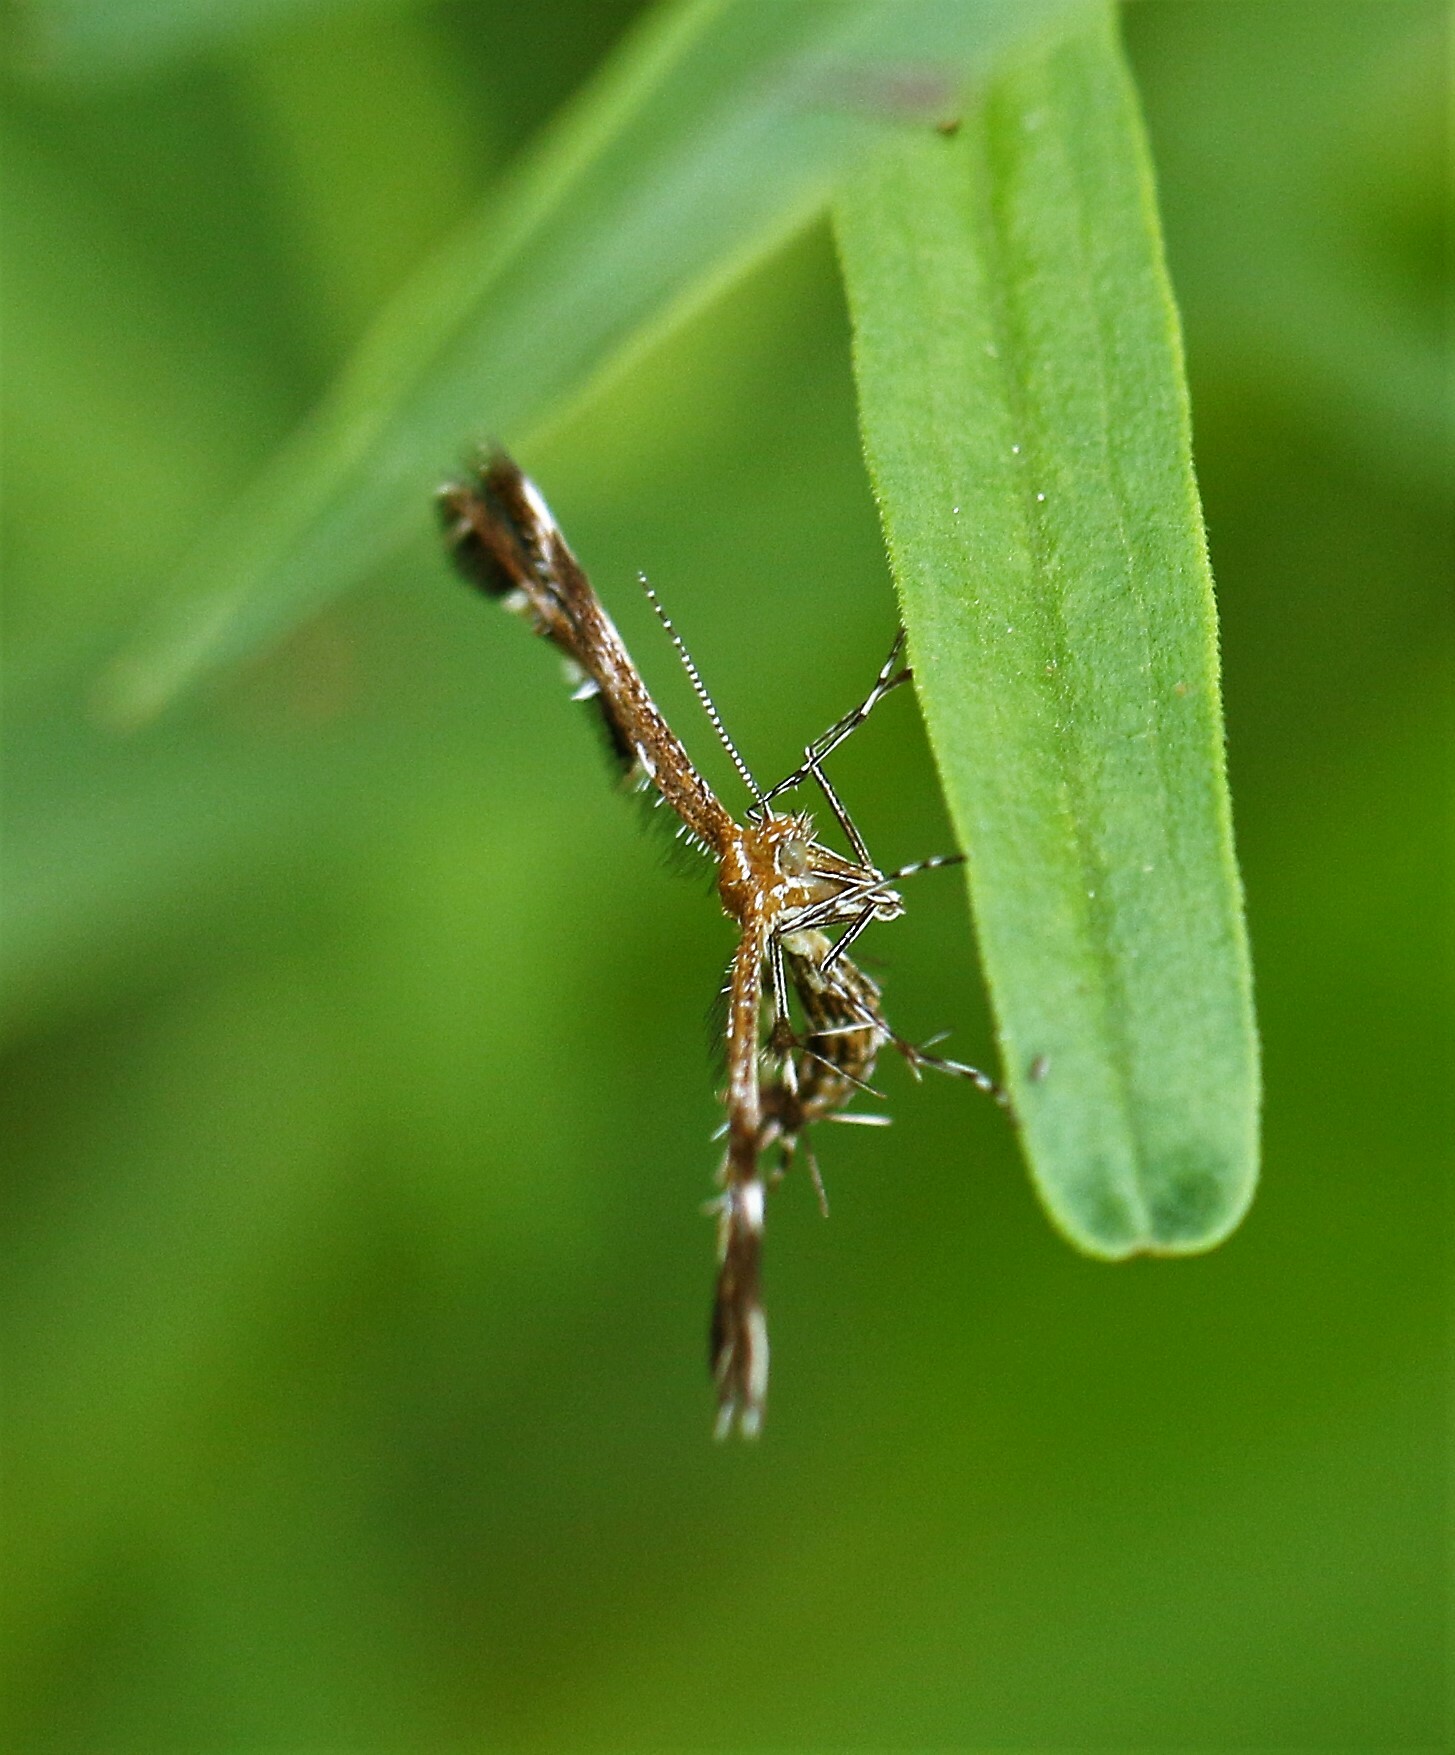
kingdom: Animalia
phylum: Arthropoda
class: Insecta
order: Lepidoptera
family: Pterophoridae
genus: Dejongia
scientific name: Dejongia lobidactylus
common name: Lobed plume moth
